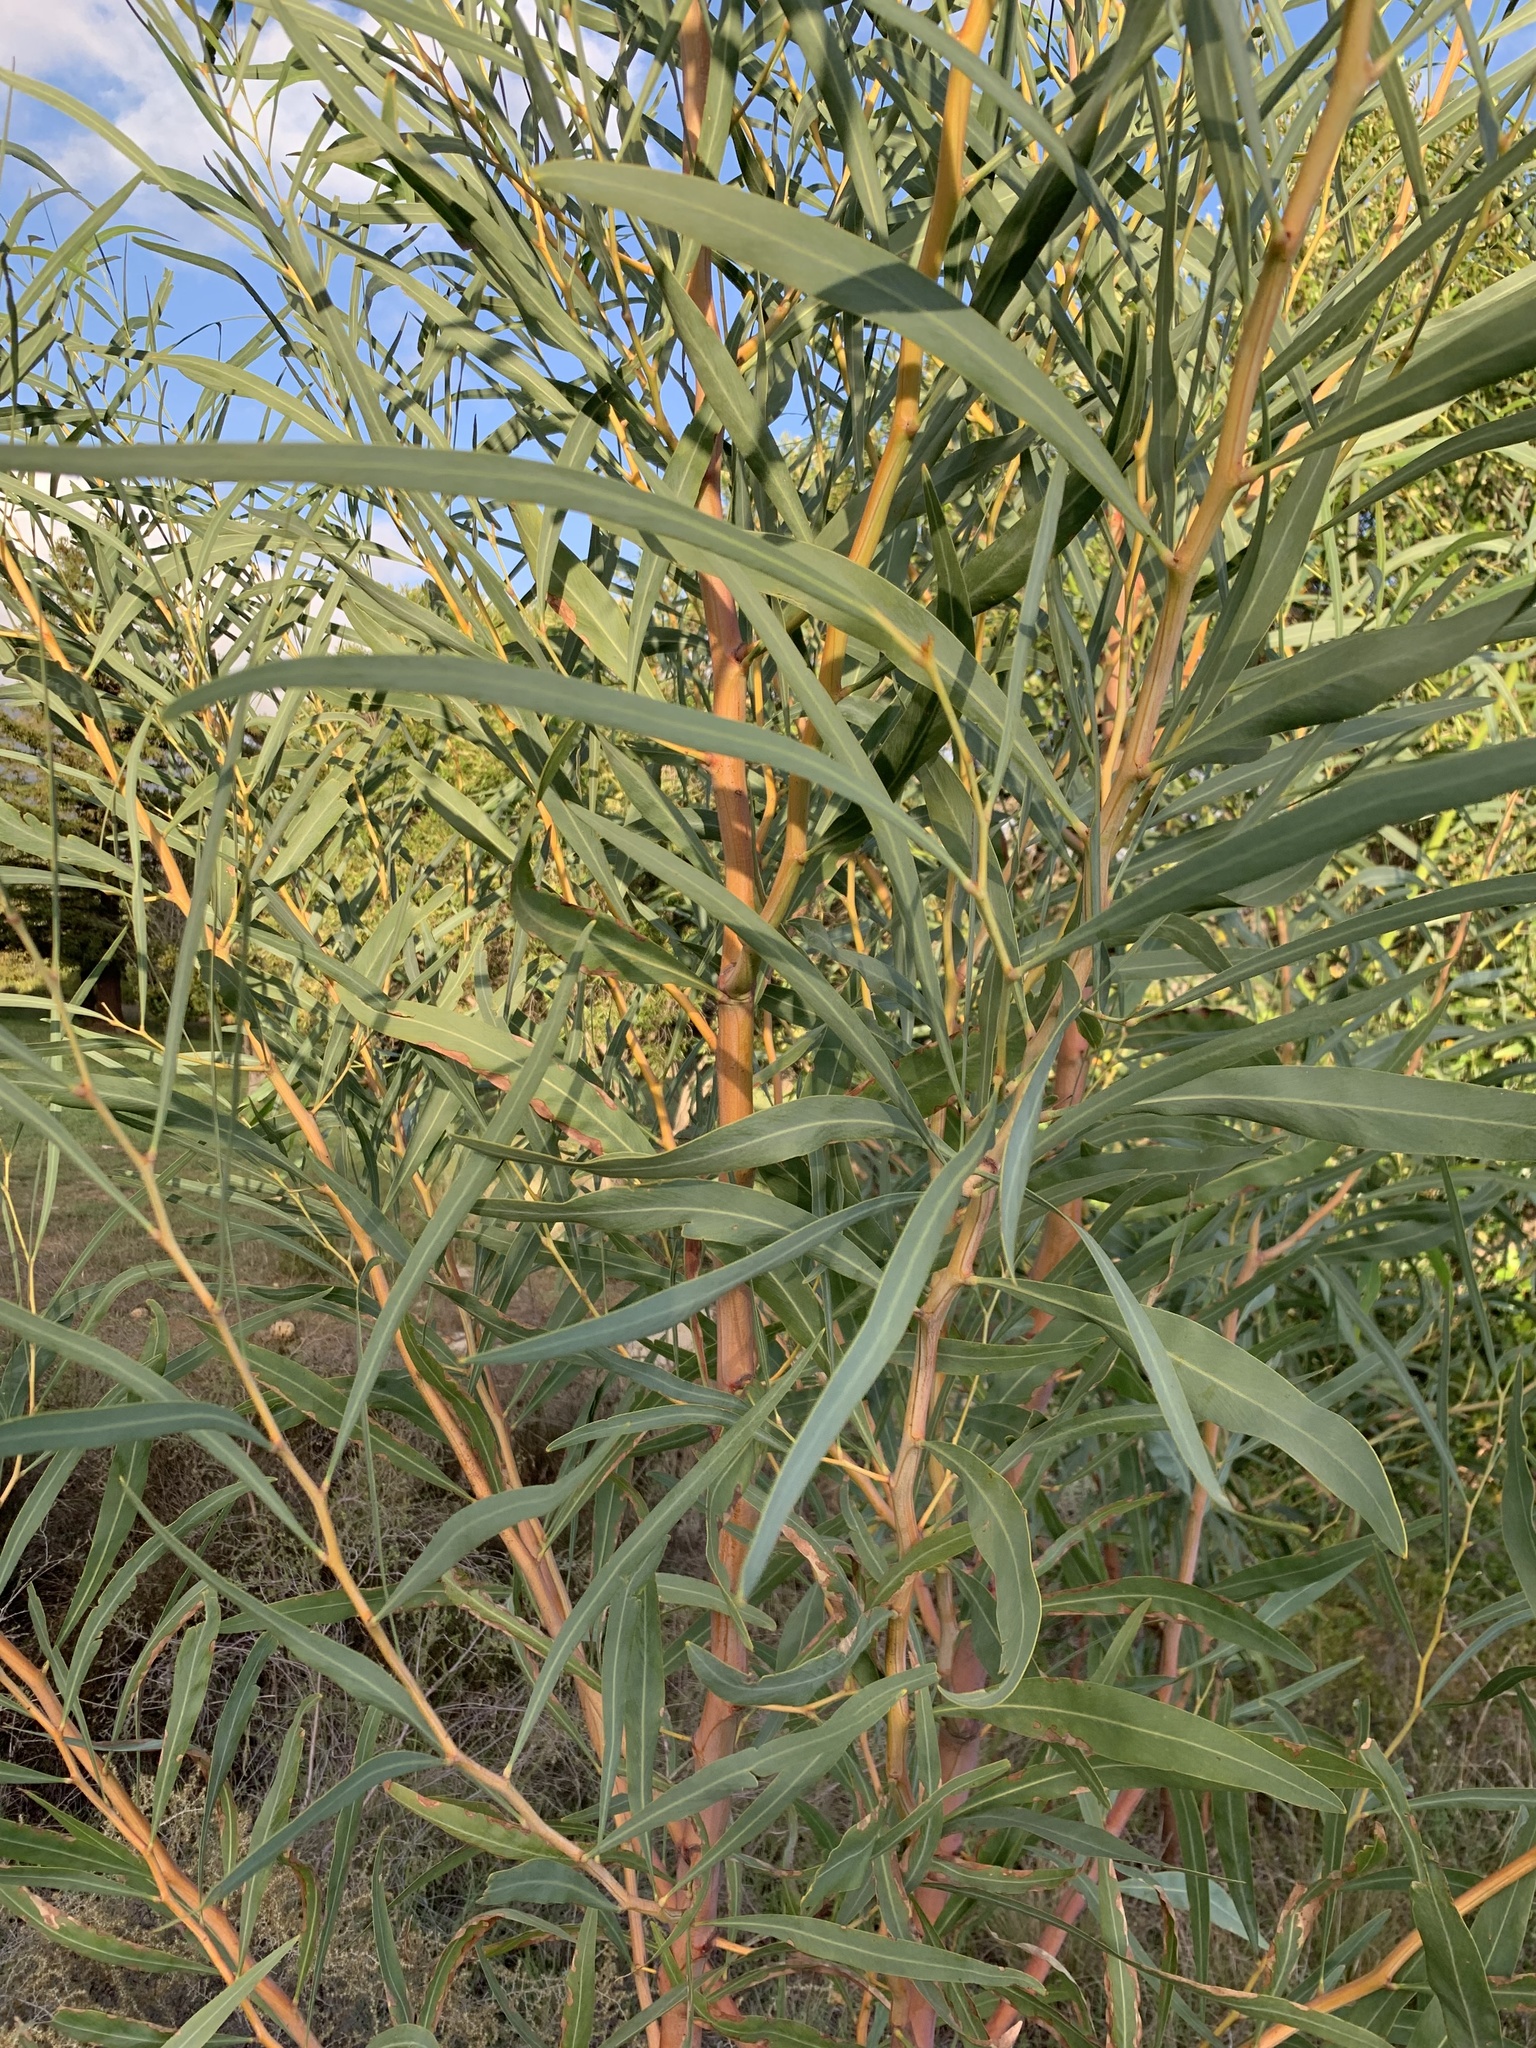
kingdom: Plantae
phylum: Tracheophyta
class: Magnoliopsida
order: Fabales
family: Fabaceae
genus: Acacia
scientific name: Acacia saligna
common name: Orange wattle
